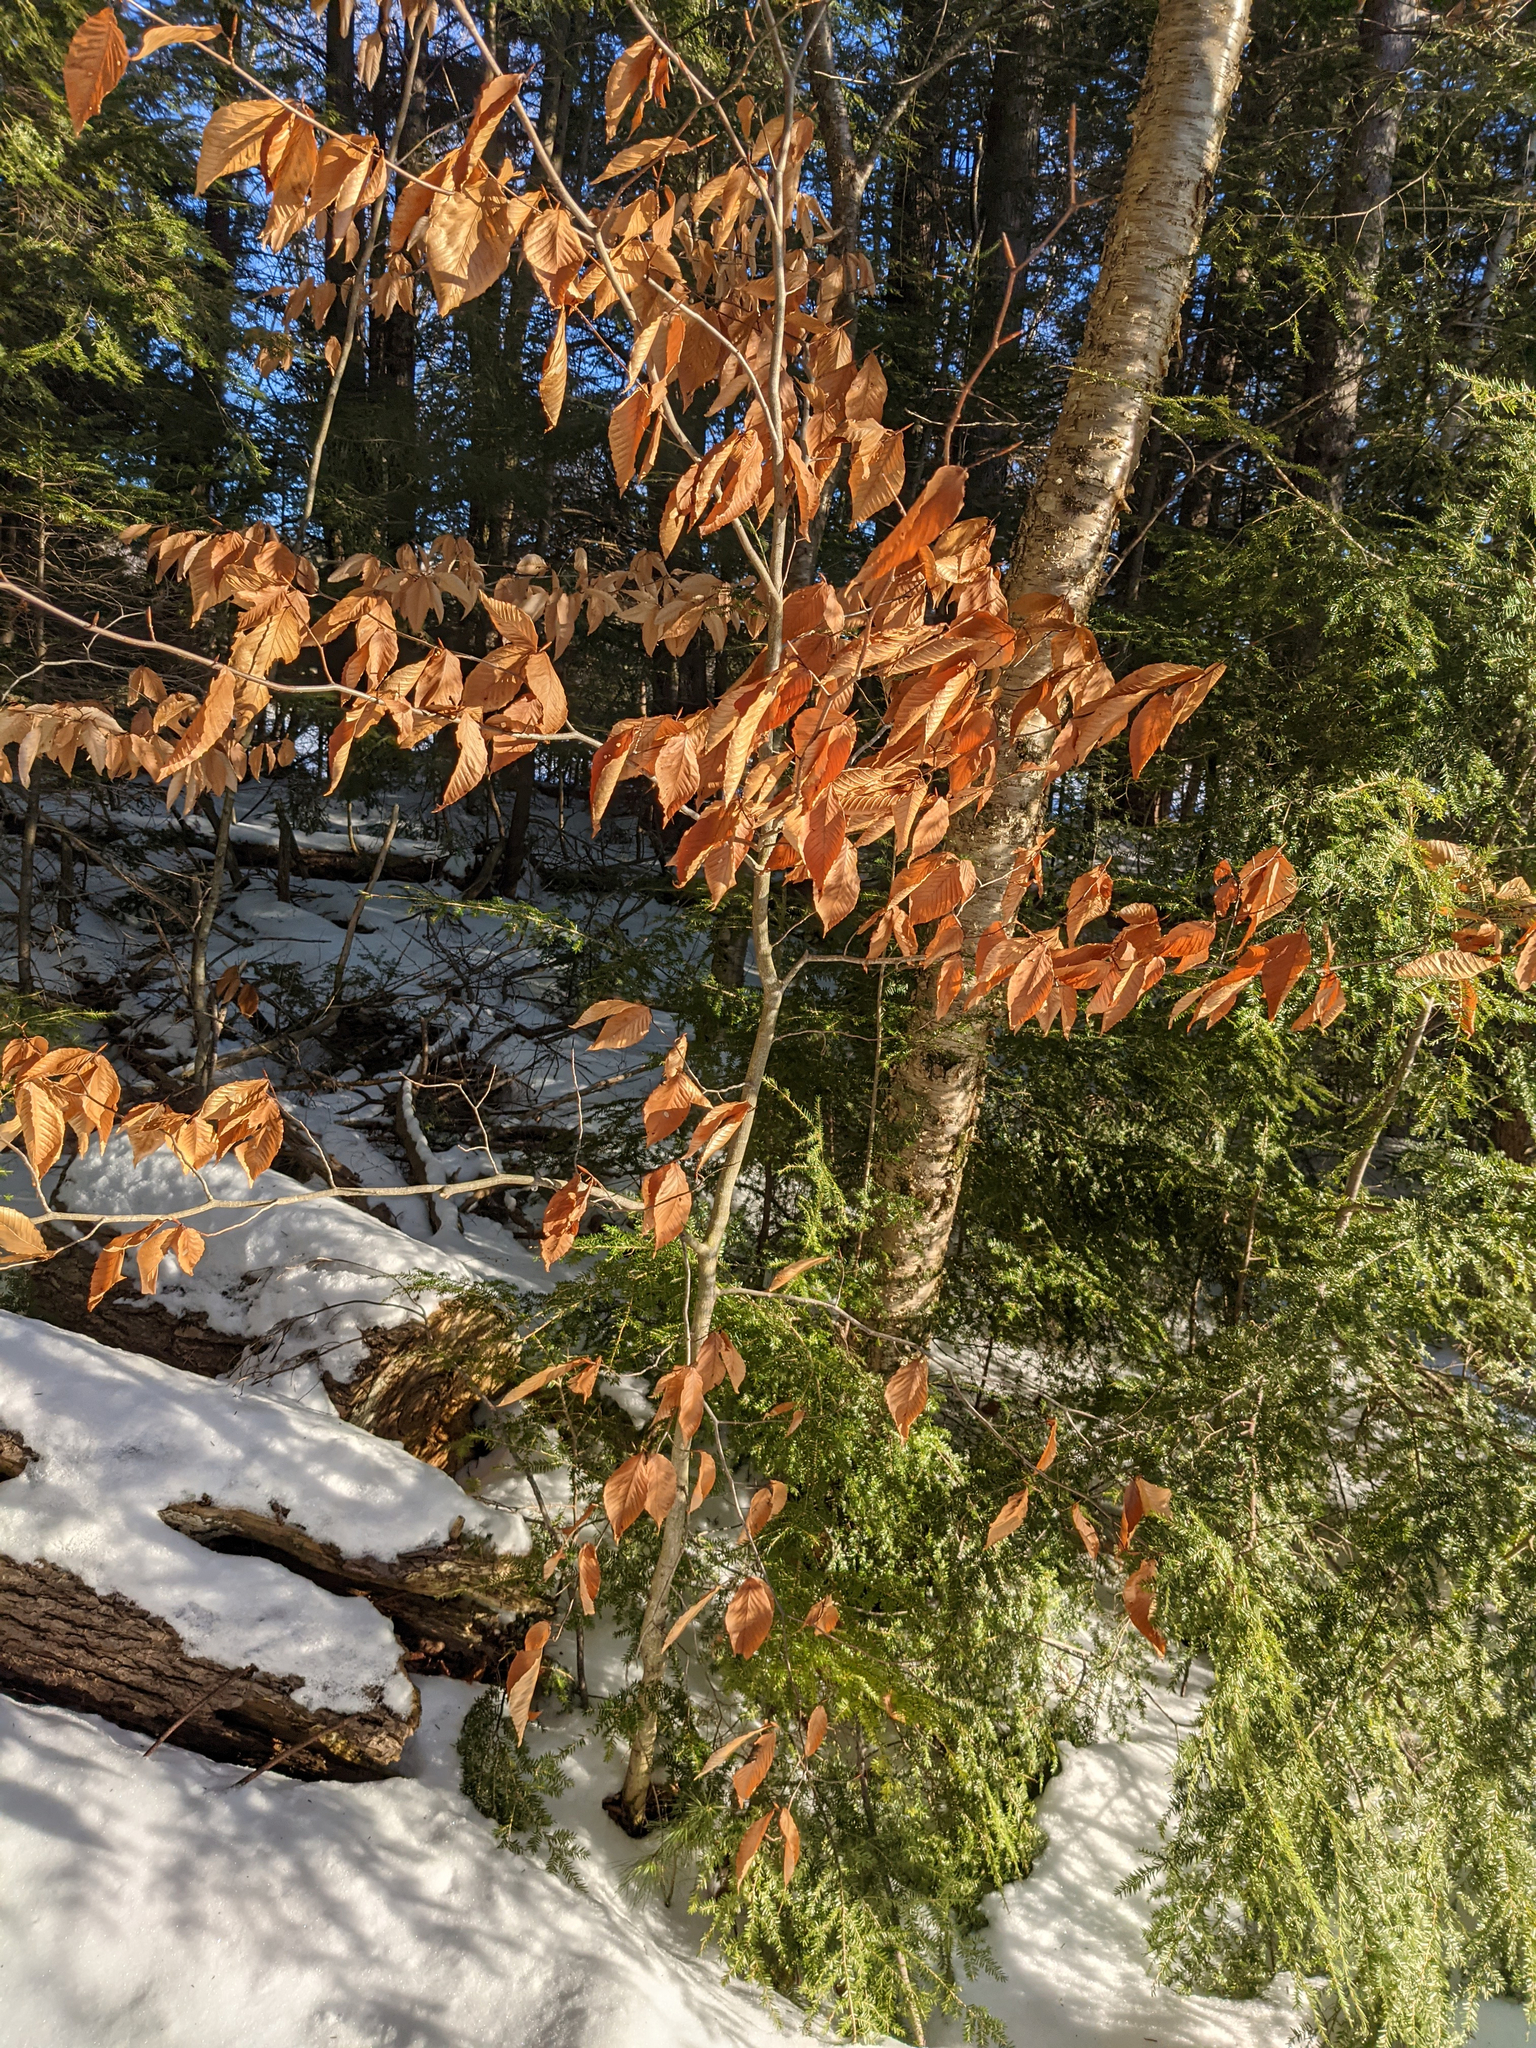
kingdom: Plantae
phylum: Tracheophyta
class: Magnoliopsida
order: Fagales
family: Fagaceae
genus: Fagus
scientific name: Fagus grandifolia
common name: American beech
